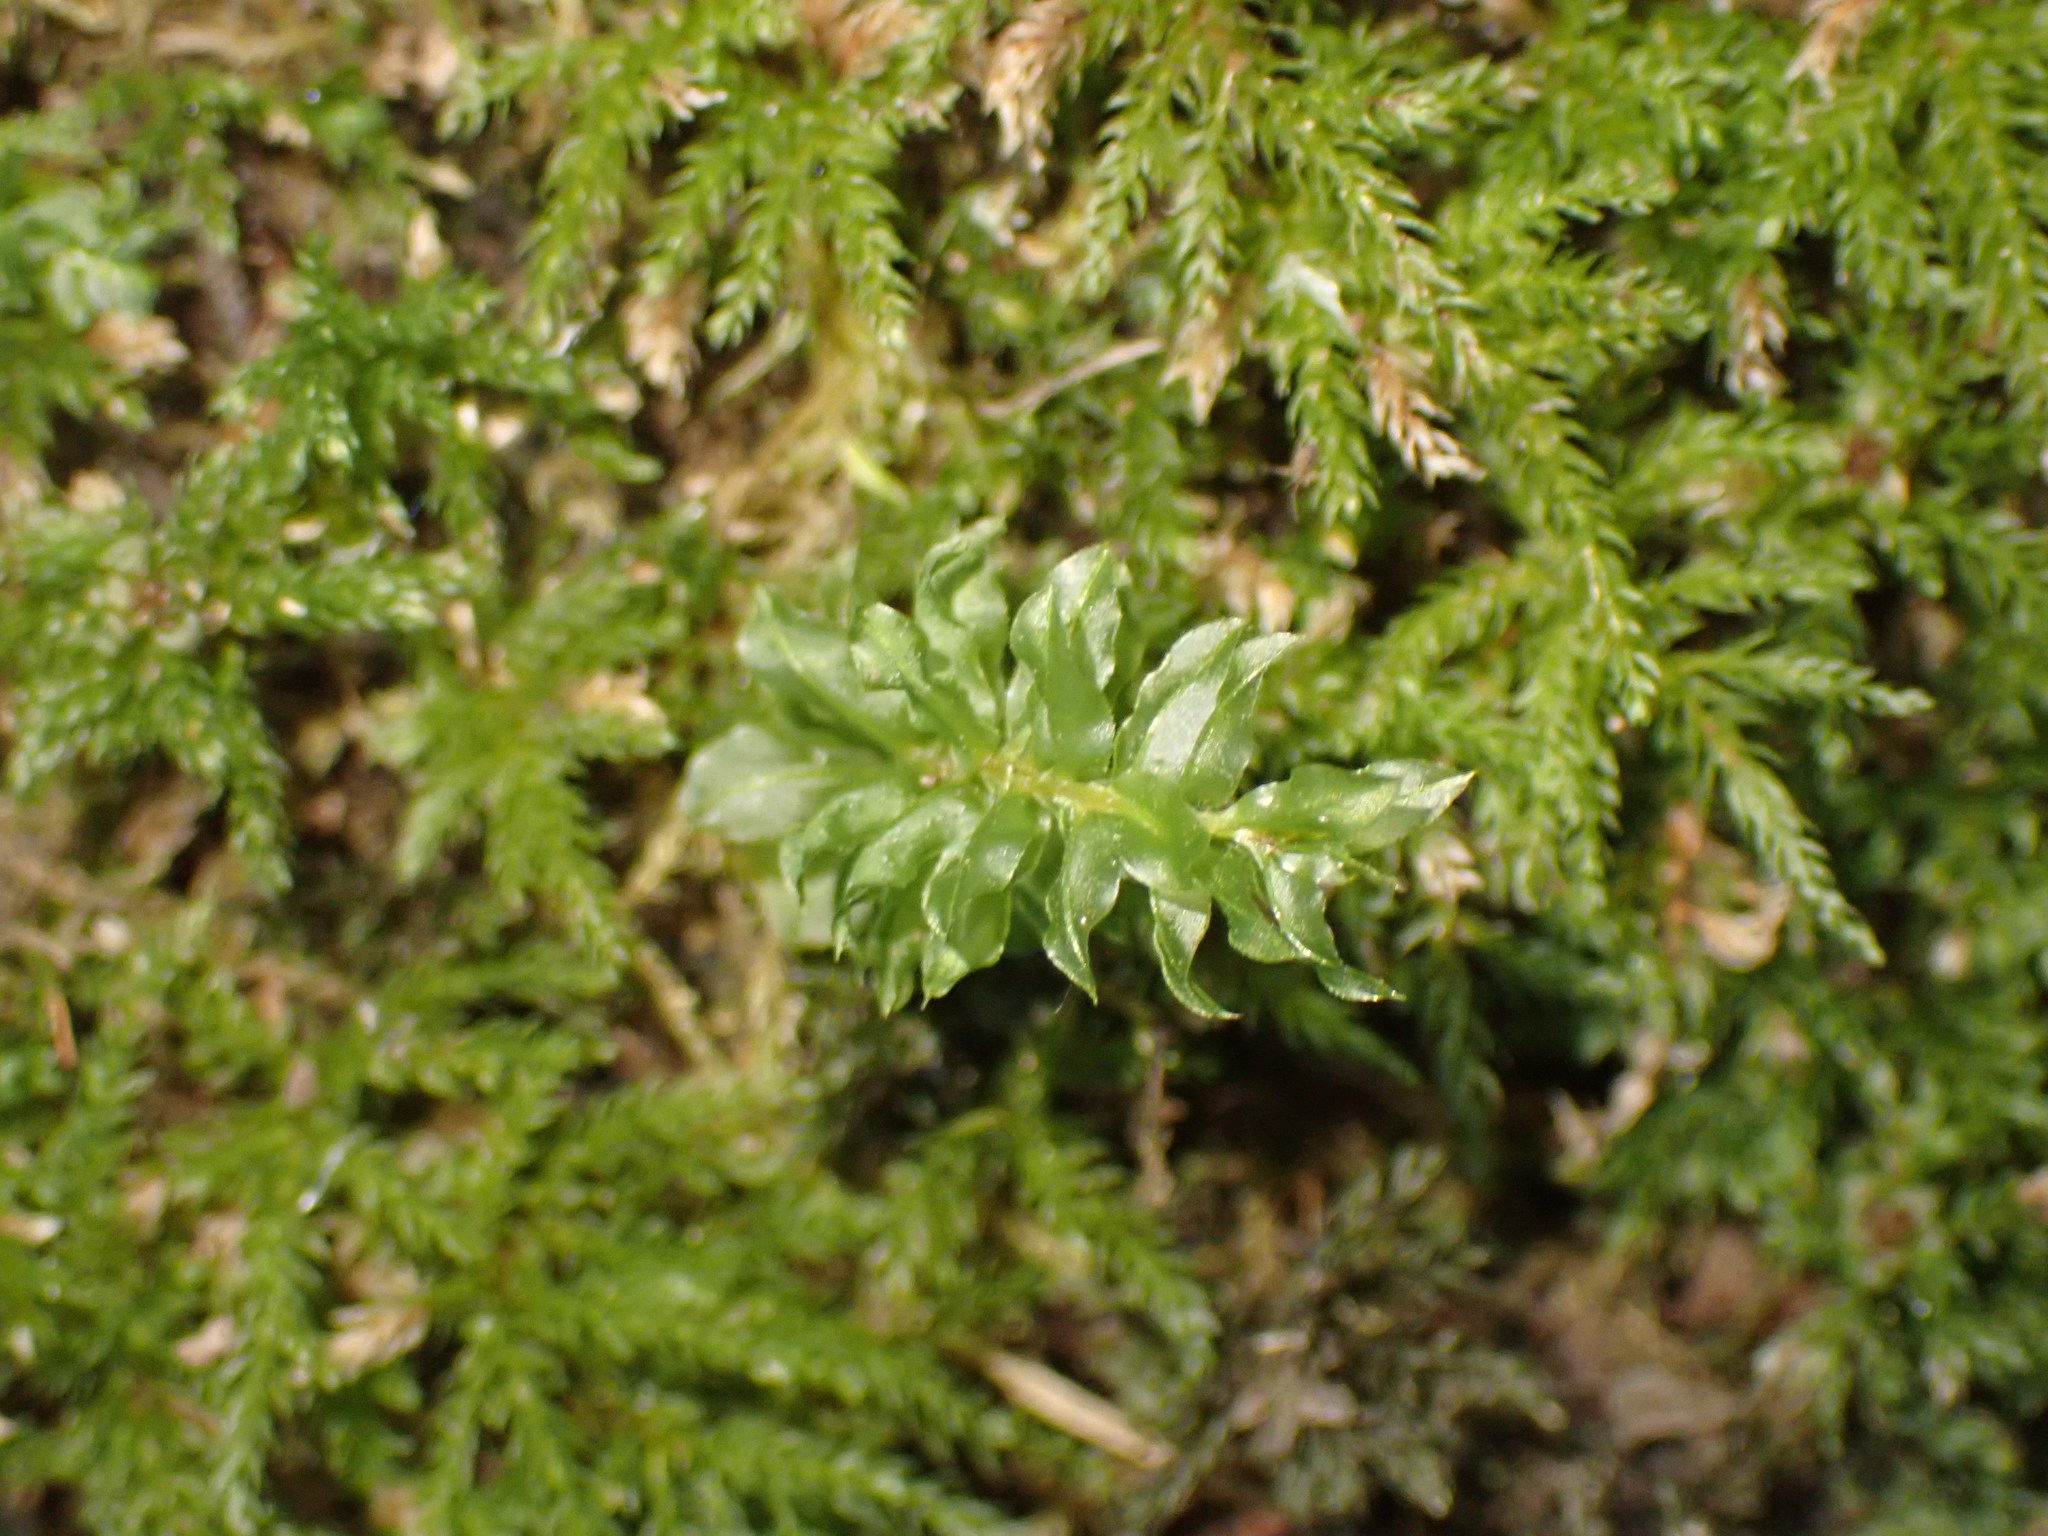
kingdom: Plantae
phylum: Bryophyta
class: Bryopsida
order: Bryales
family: Mniaceae
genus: Plagiomnium
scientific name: Plagiomnium insigne
